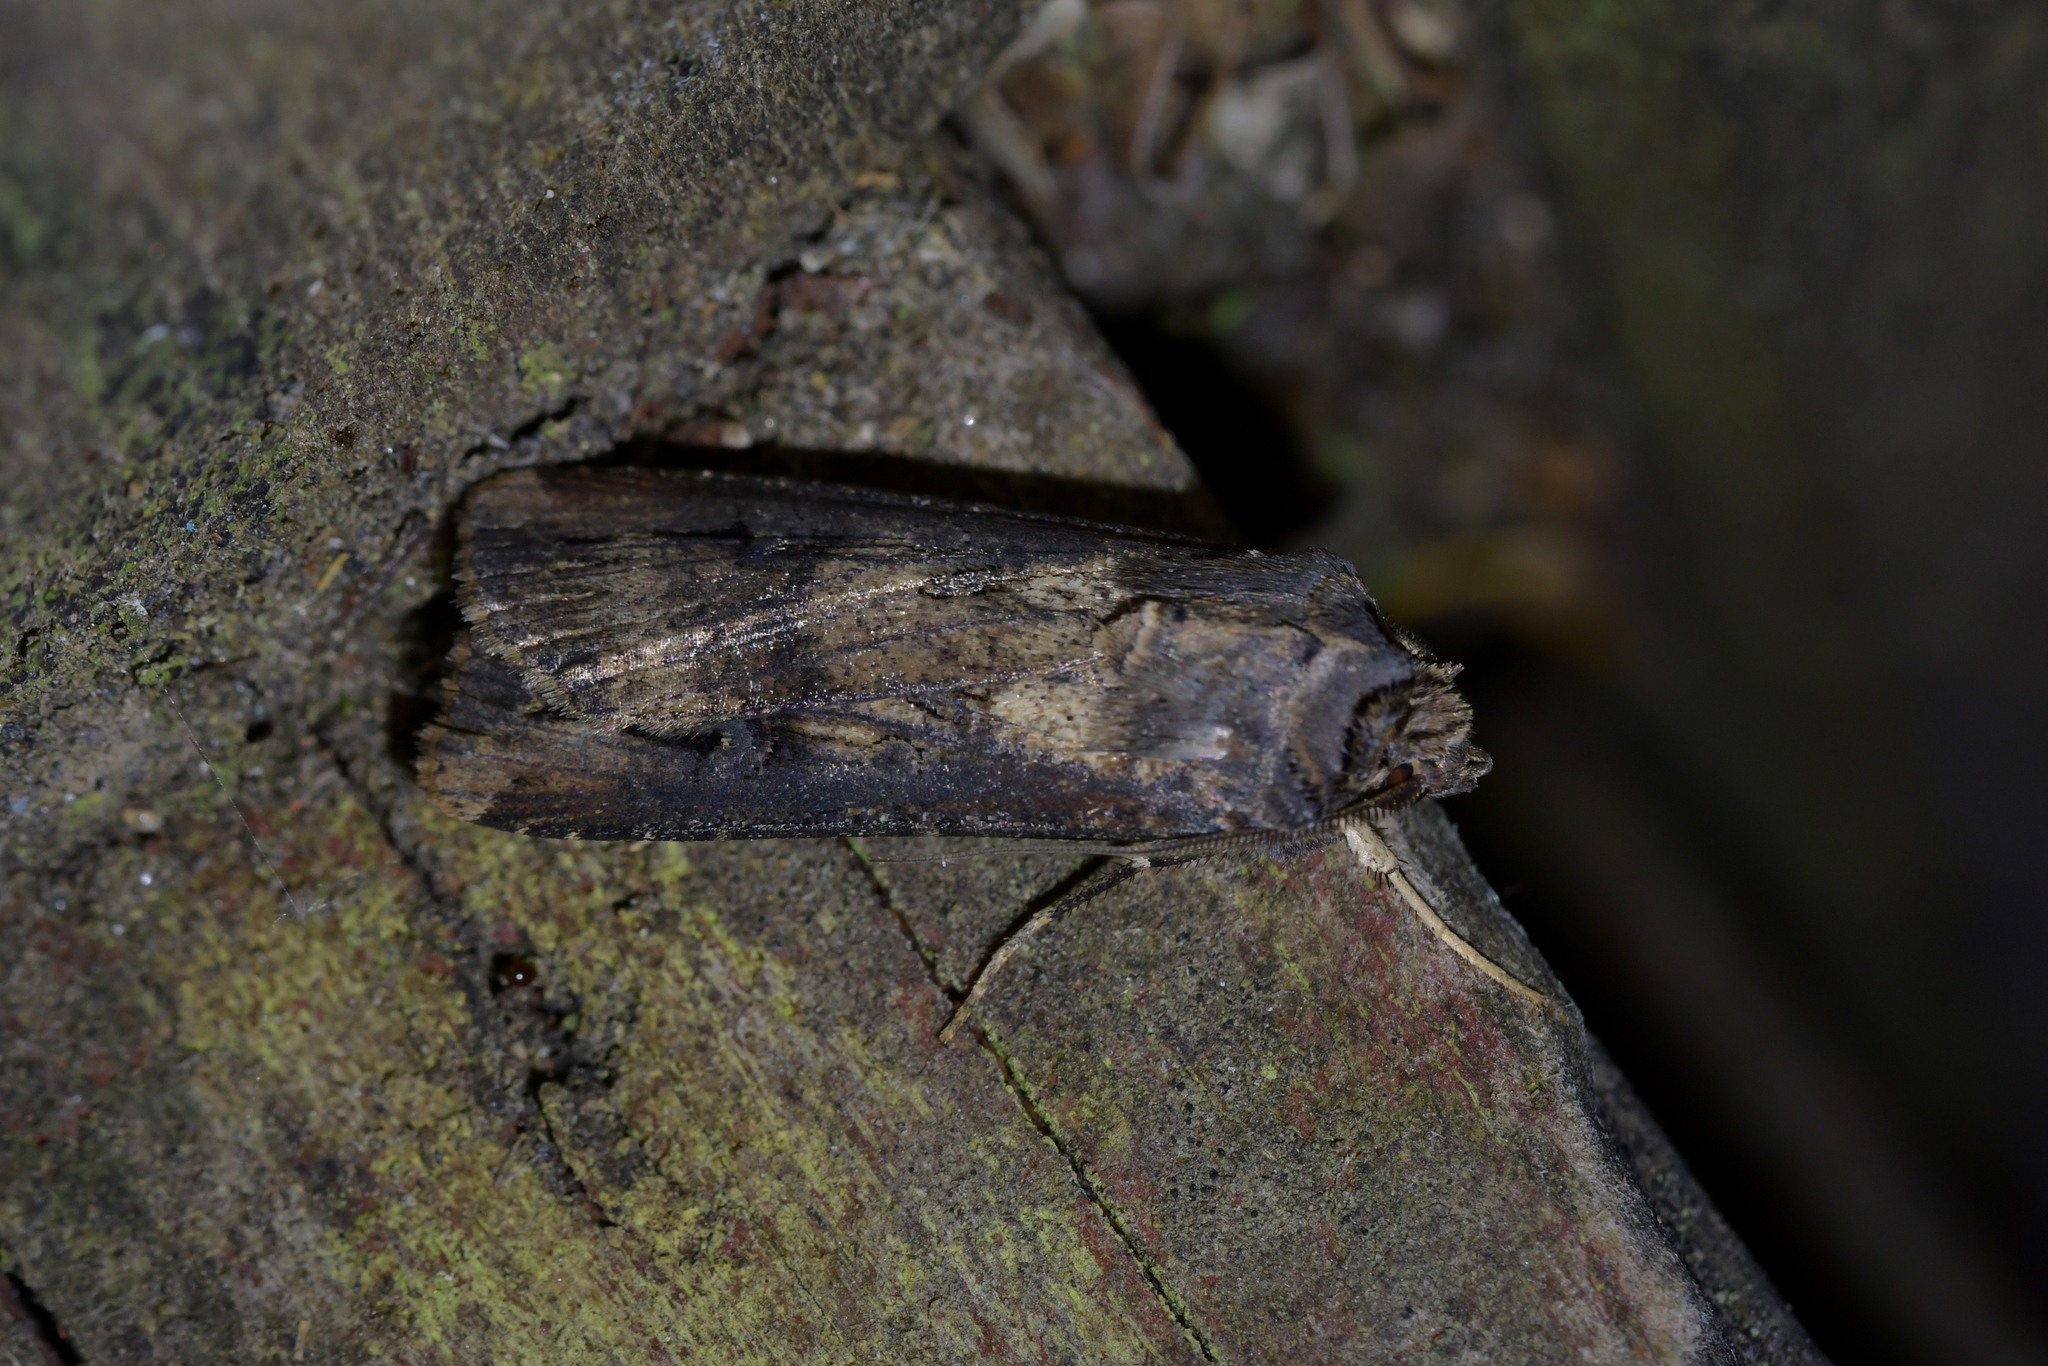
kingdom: Animalia
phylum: Arthropoda
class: Insecta
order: Lepidoptera
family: Noctuidae
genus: Agrotis
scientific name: Agrotis ipsilon
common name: Dark sword-grass
